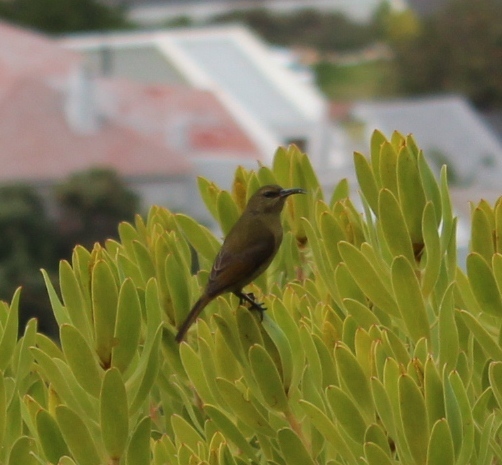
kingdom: Animalia
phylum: Chordata
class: Aves
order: Passeriformes
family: Nectariniidae
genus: Anthobaphes
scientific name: Anthobaphes violacea
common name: Orange-breasted sunbird
